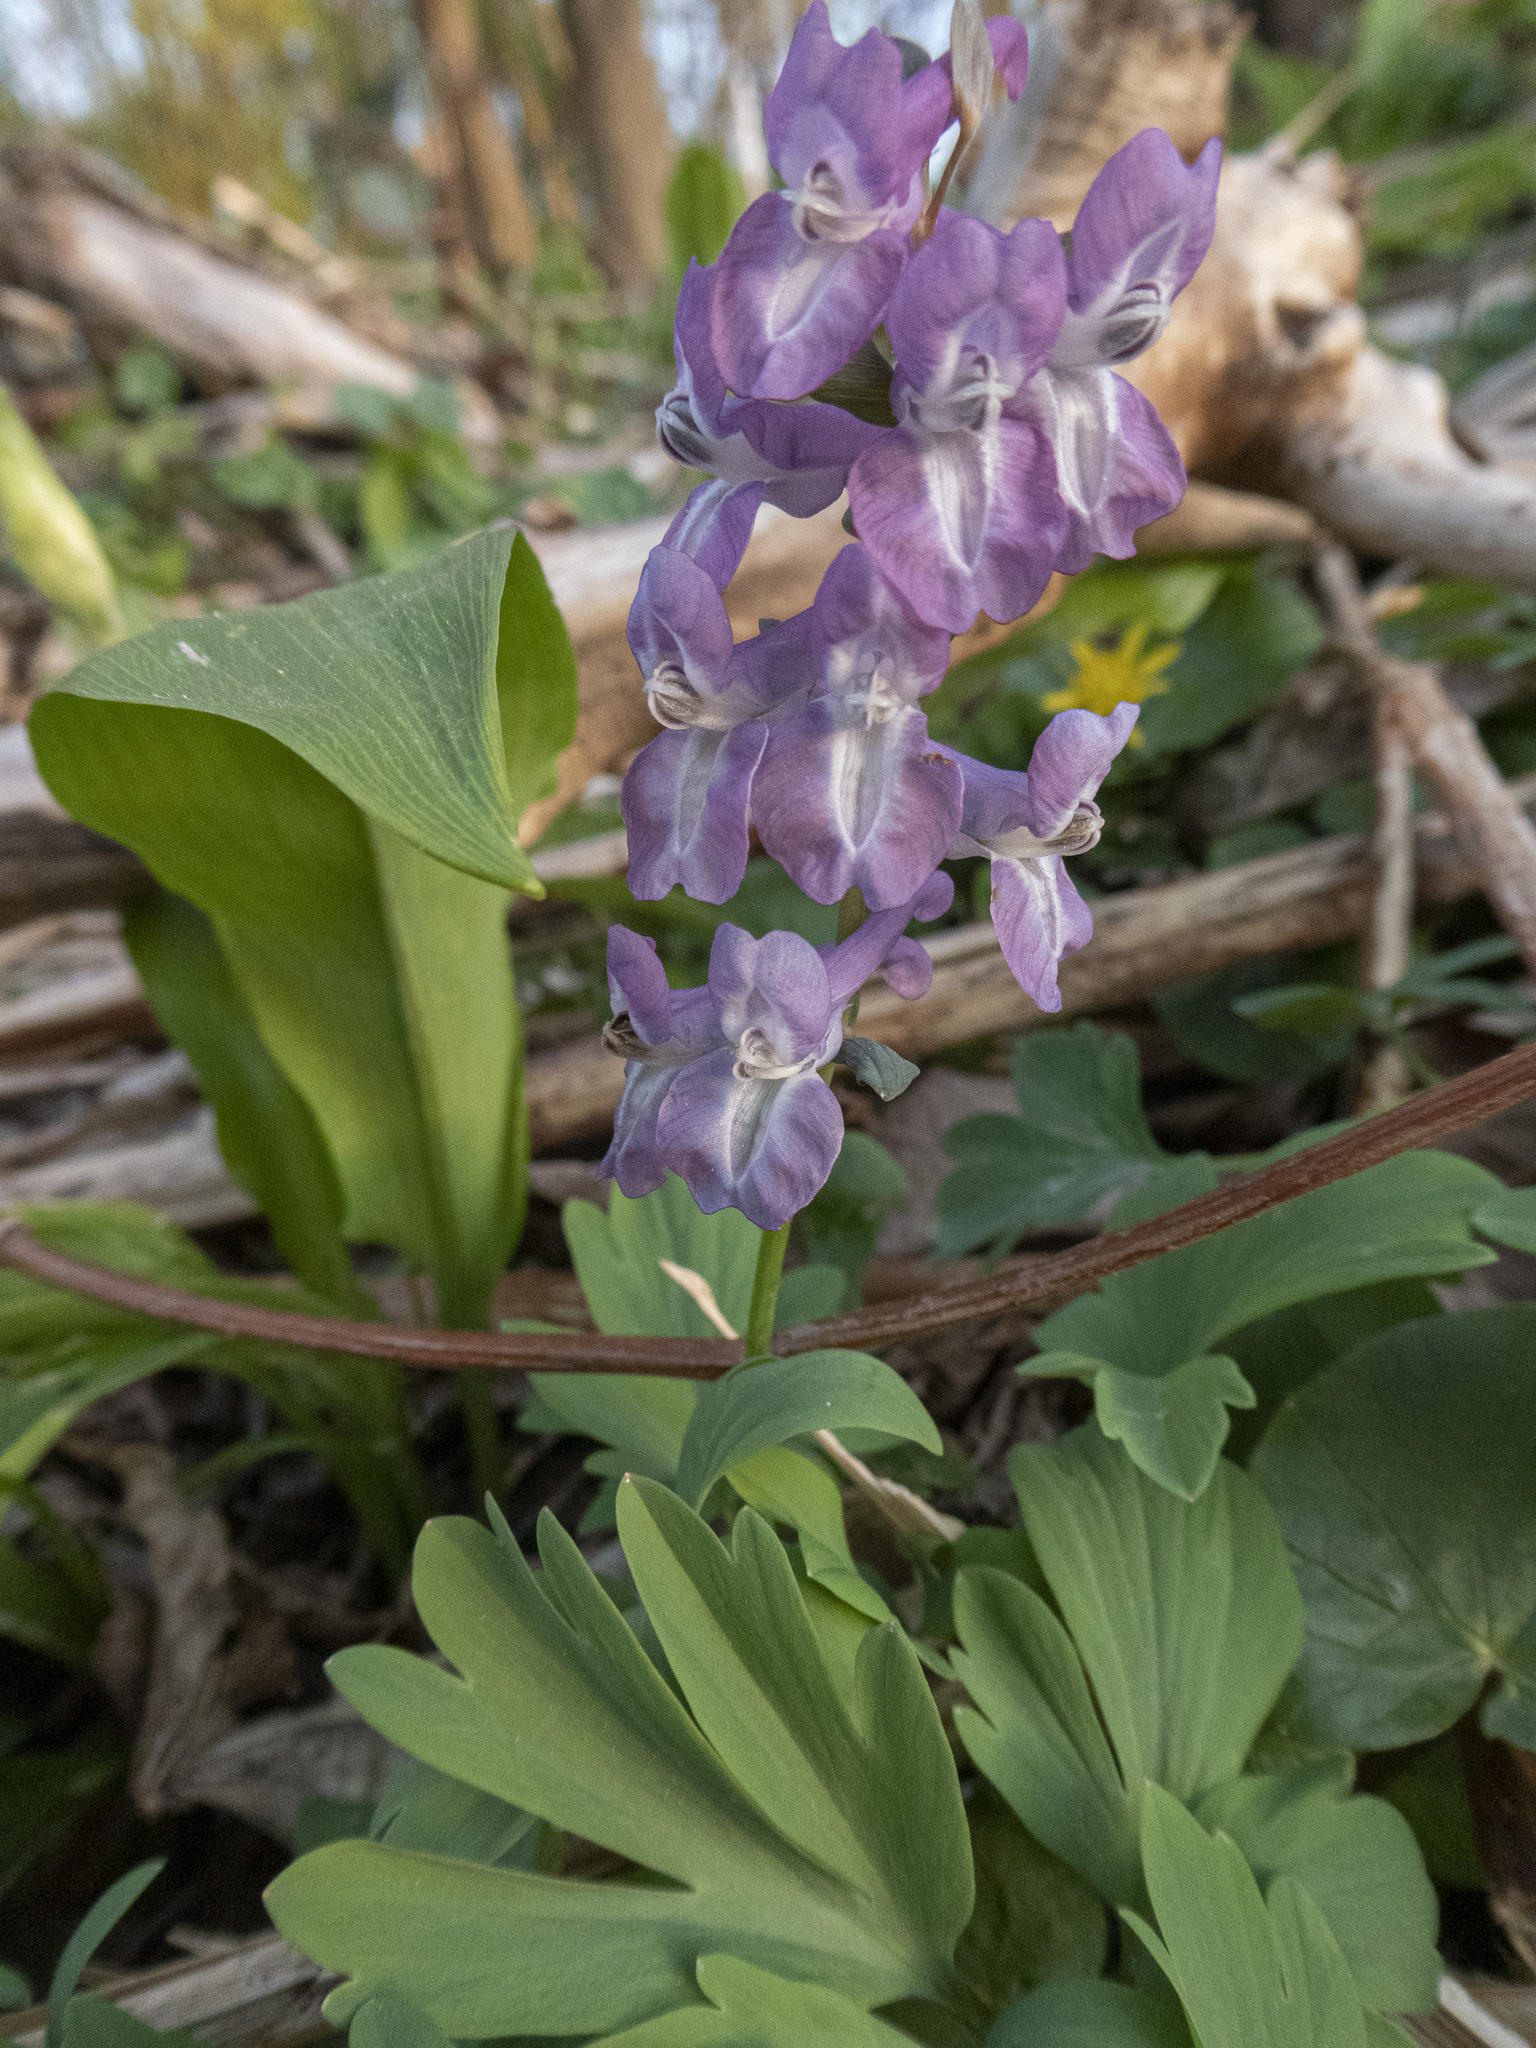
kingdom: Plantae
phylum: Tracheophyta
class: Magnoliopsida
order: Ranunculales
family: Papaveraceae
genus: Corydalis
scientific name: Corydalis cava
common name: Hollowroot
